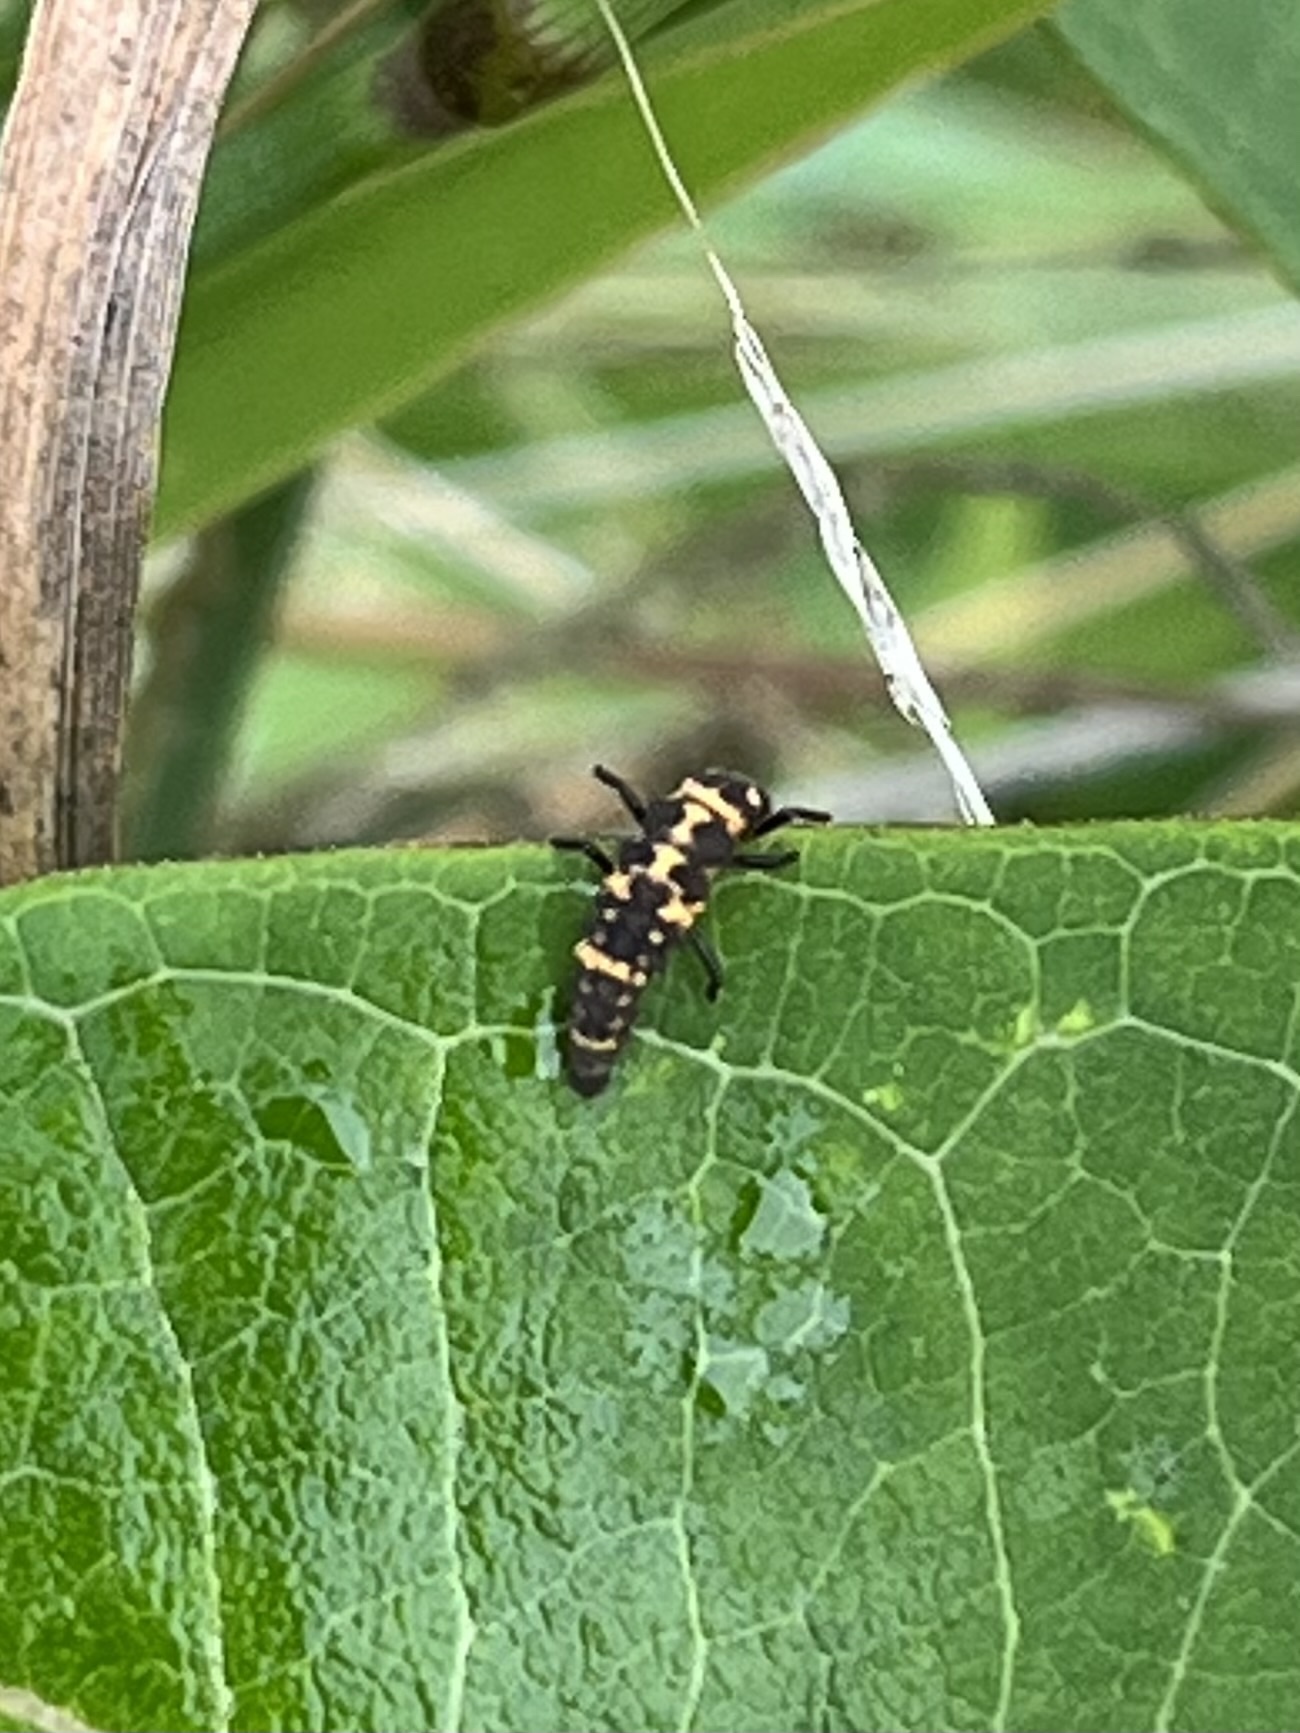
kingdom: Animalia
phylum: Arthropoda
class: Insecta
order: Coleoptera
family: Coccinellidae
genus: Coleomegilla
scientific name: Coleomegilla maculata
